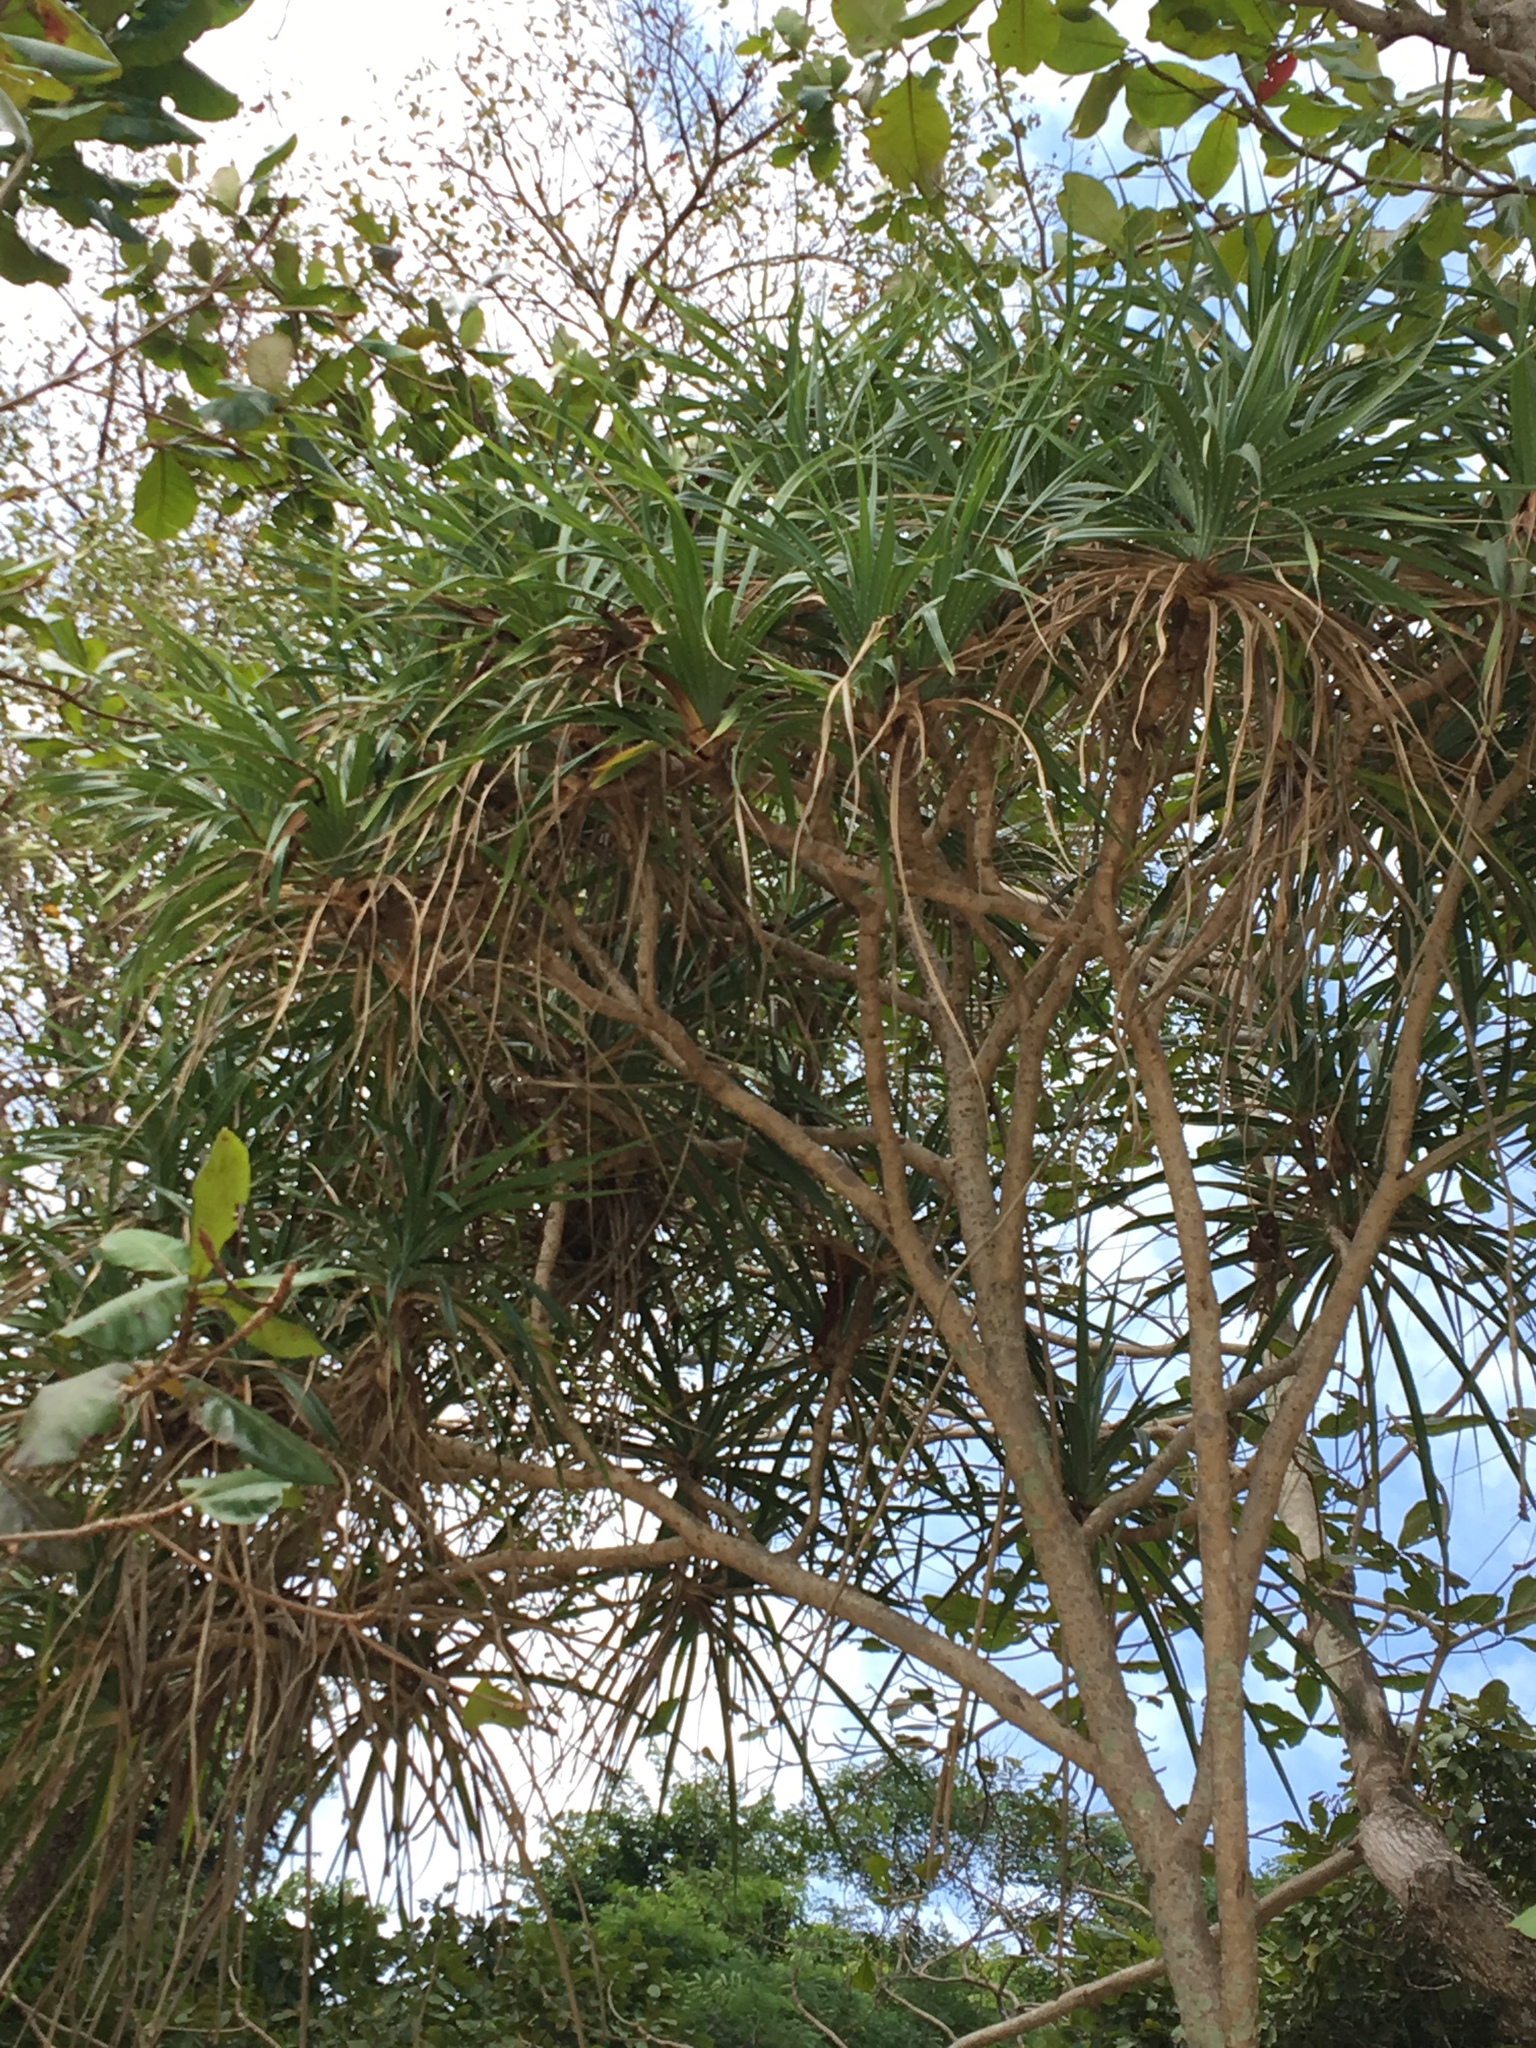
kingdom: Plantae
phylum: Tracheophyta
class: Liliopsida
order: Pandanales
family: Pandanaceae
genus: Pandanus
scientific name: Pandanus tectorius
